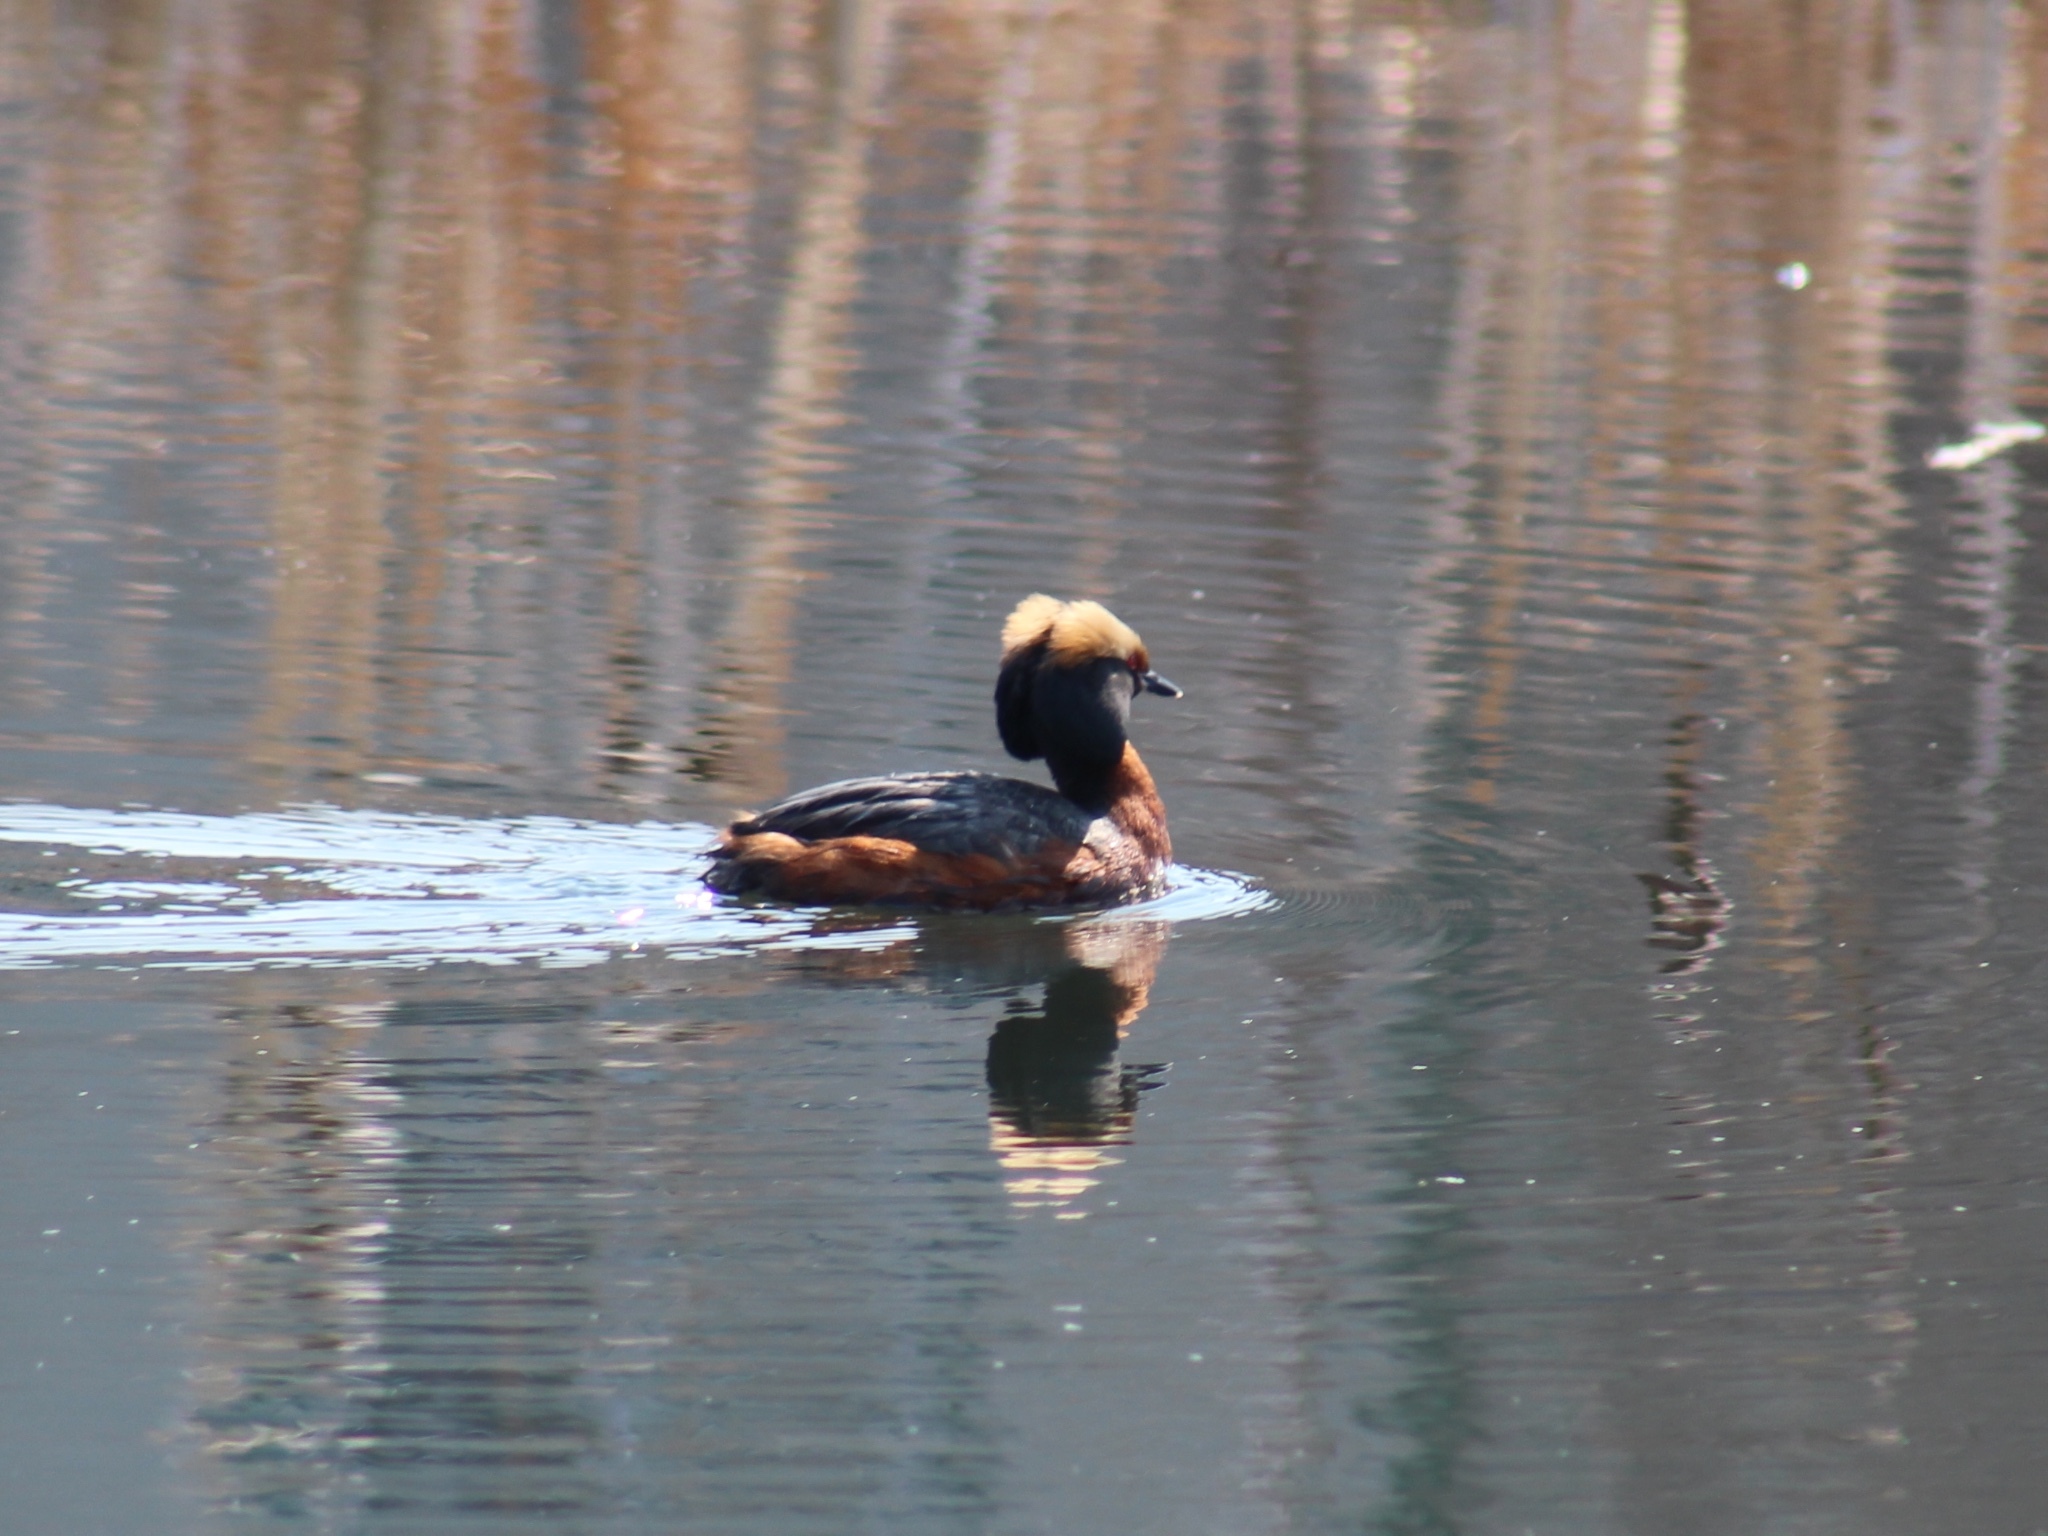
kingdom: Animalia
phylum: Chordata
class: Aves
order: Podicipediformes
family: Podicipedidae
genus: Podiceps
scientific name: Podiceps auritus
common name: Horned grebe
